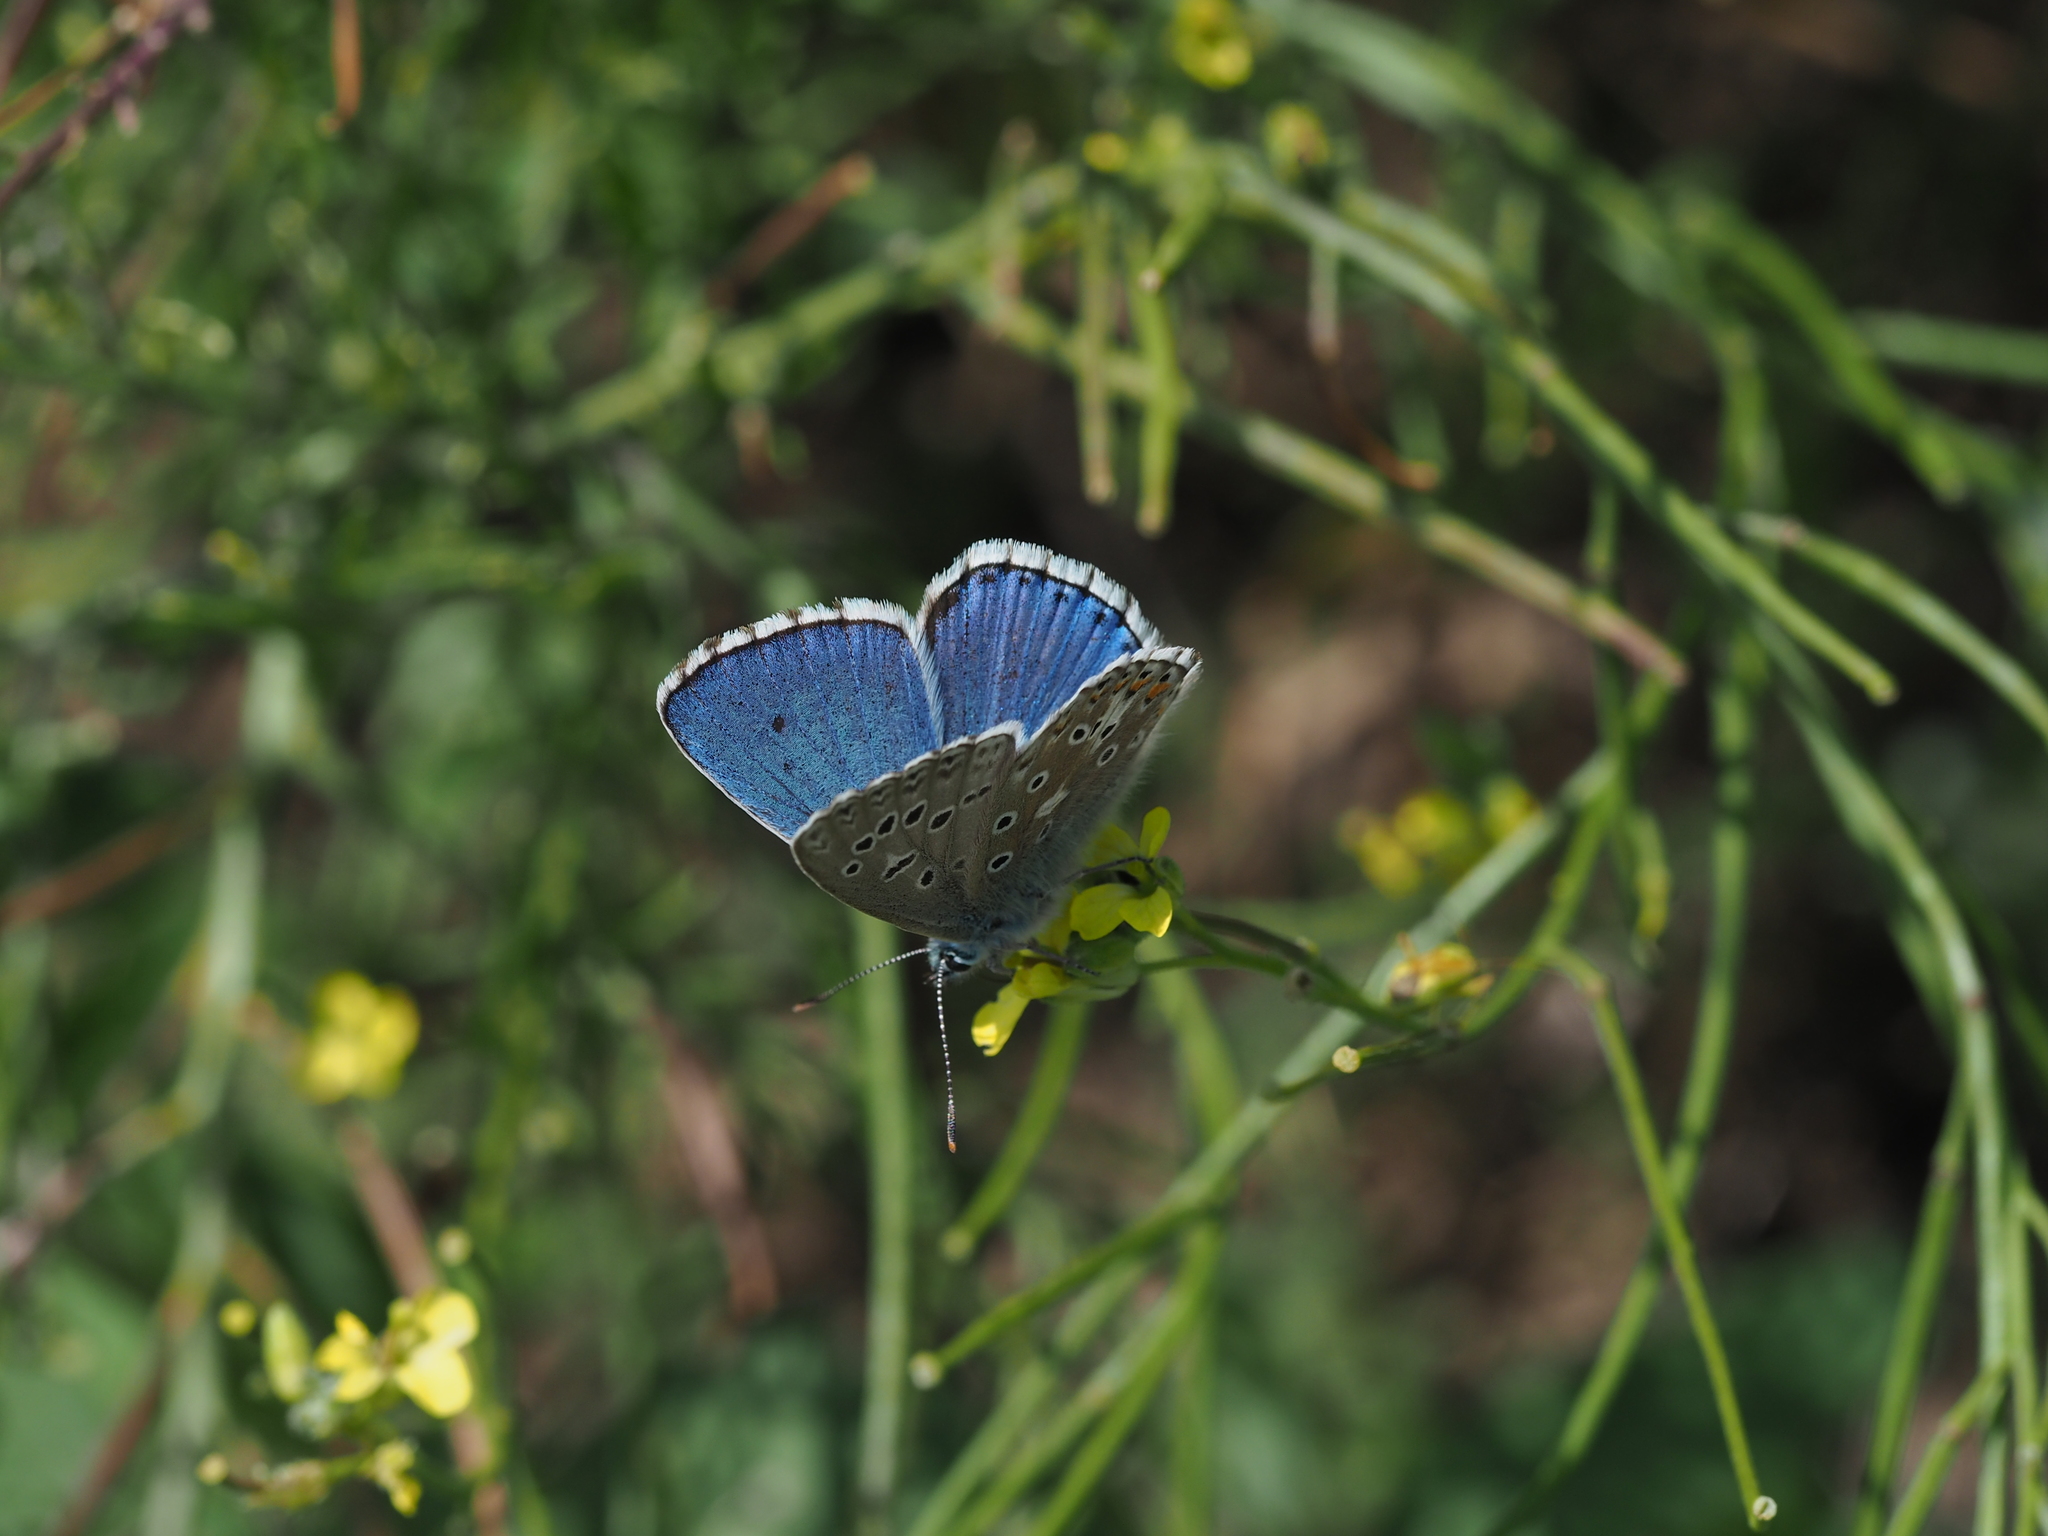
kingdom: Animalia
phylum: Arthropoda
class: Insecta
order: Lepidoptera
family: Lycaenidae
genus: Lysandra
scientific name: Lysandra bellargus
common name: Adonis blue
